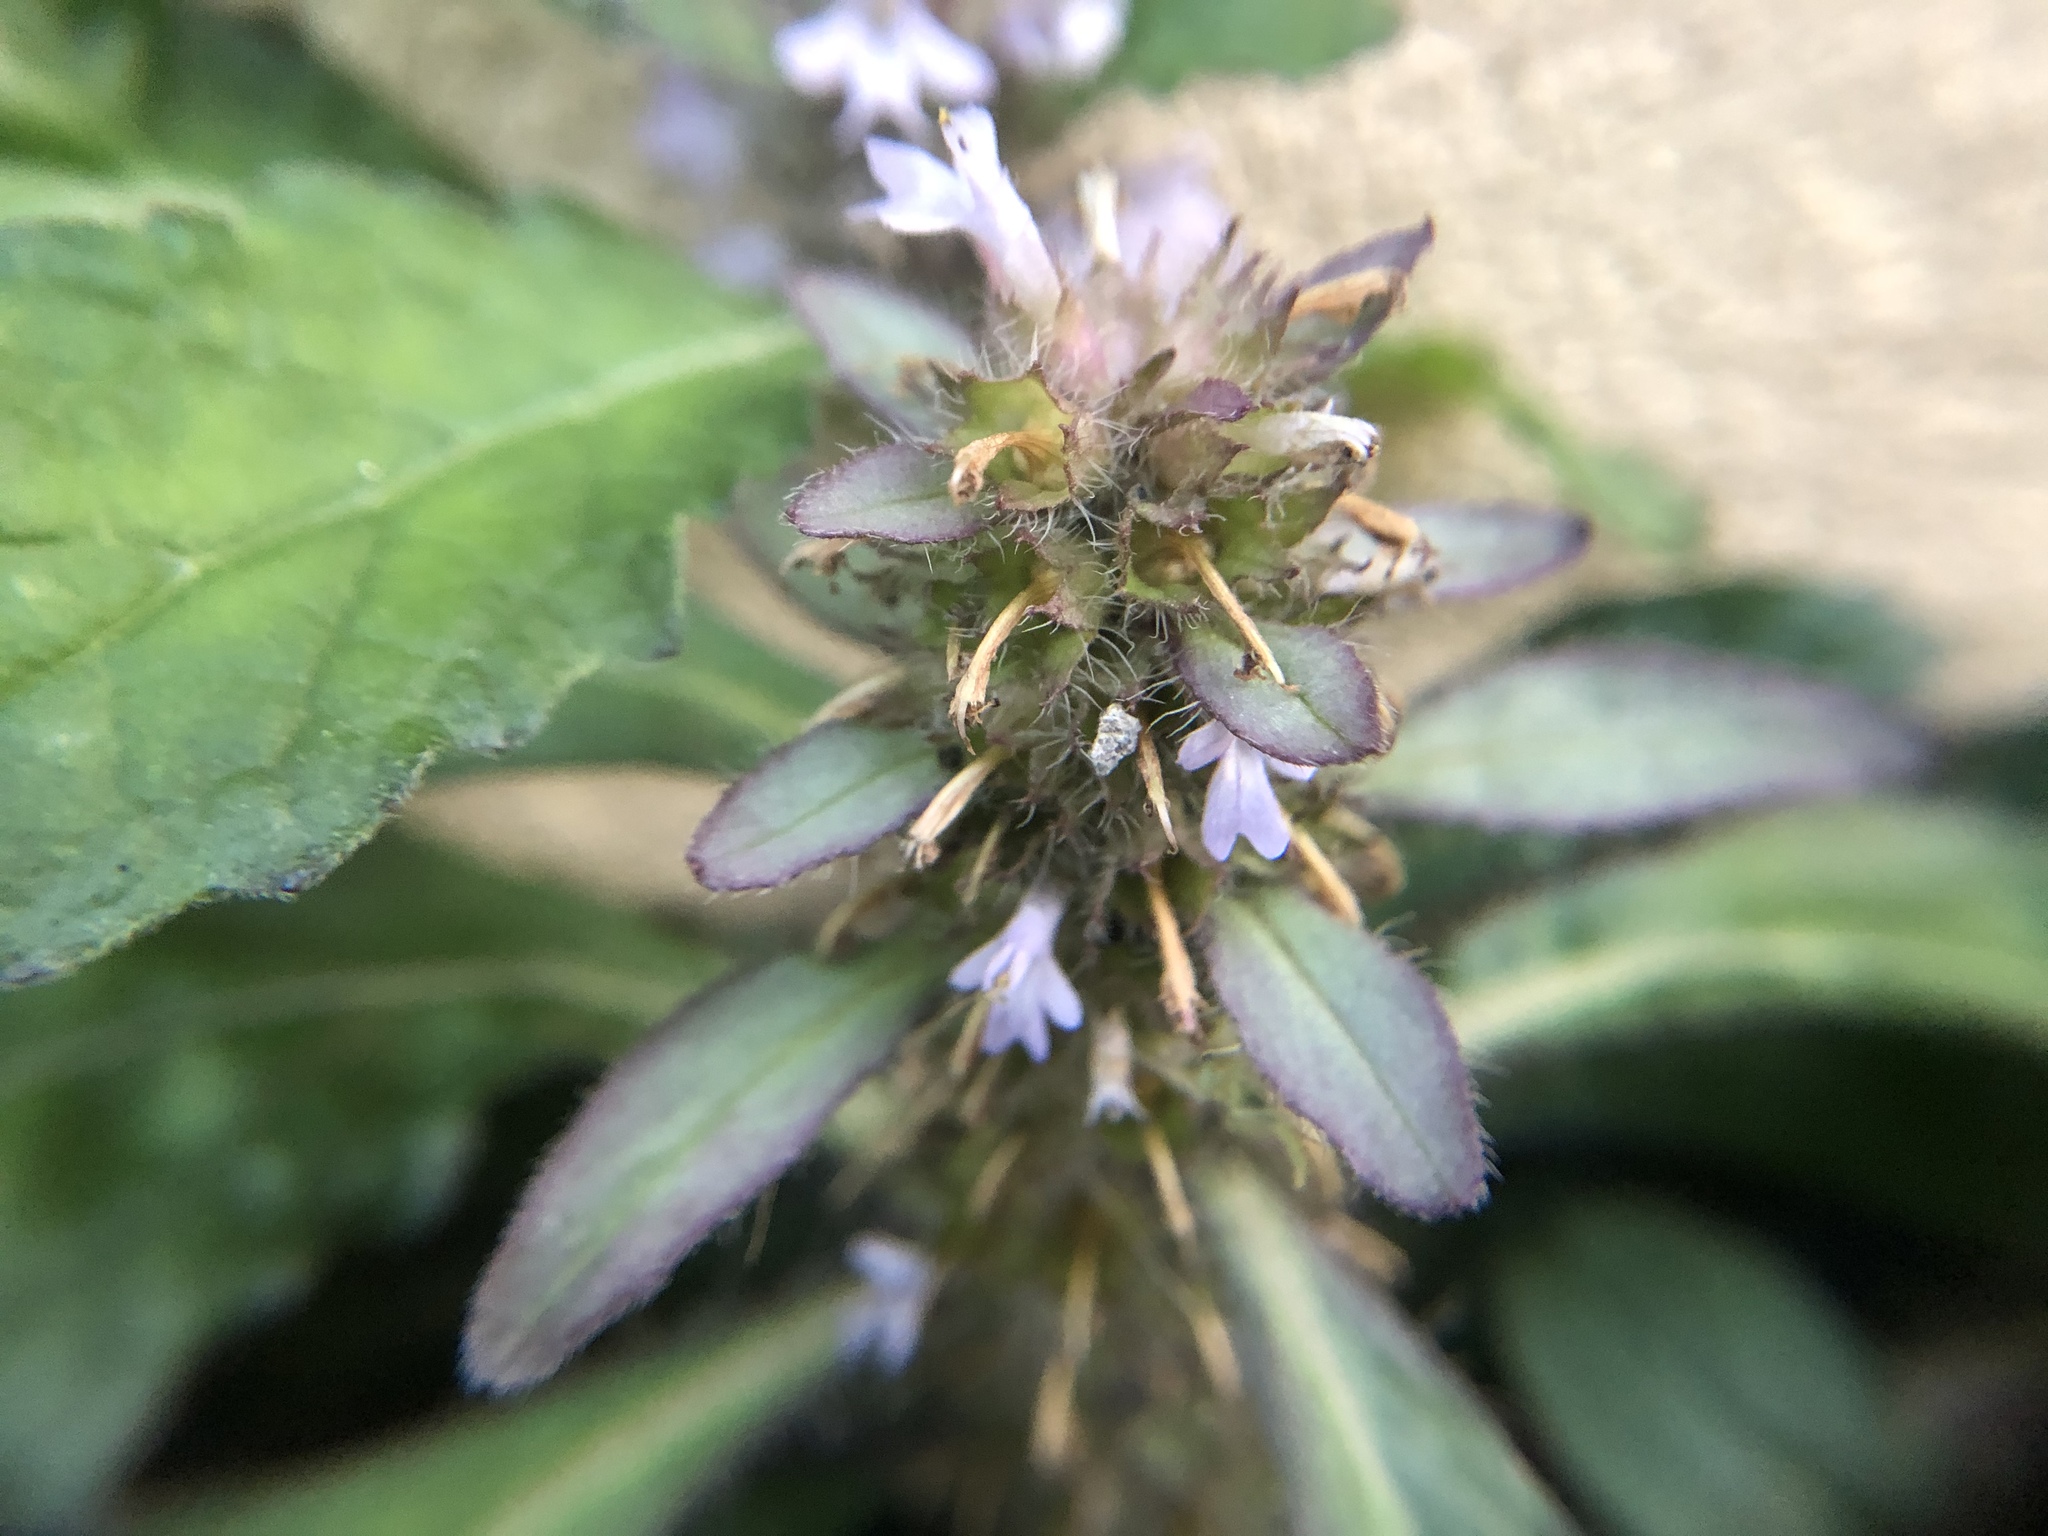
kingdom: Plantae
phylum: Tracheophyta
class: Magnoliopsida
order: Lamiales
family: Lamiaceae
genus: Ajuga
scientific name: Ajuga taiwanensis
